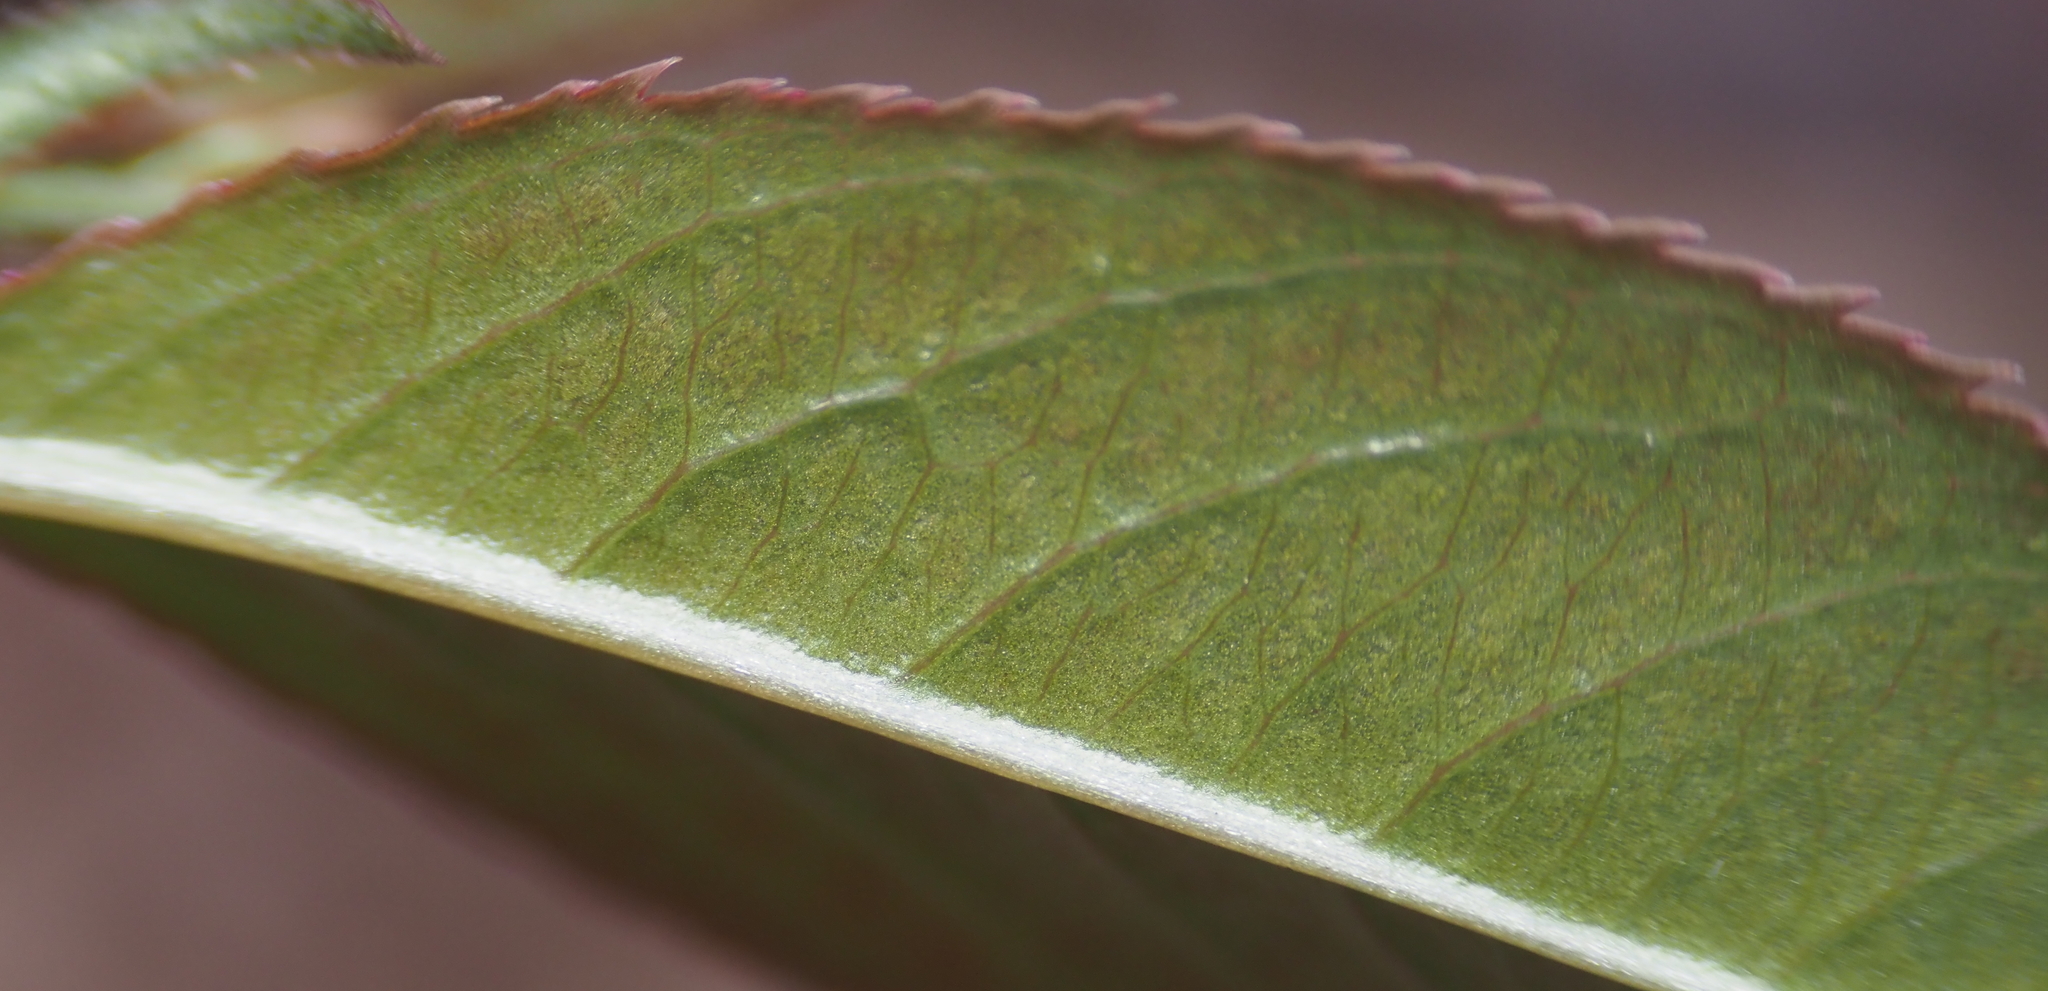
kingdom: Plantae
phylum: Tracheophyta
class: Magnoliopsida
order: Rosales
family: Rosaceae
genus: Prunus
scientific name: Prunus serotina
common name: Black cherry
